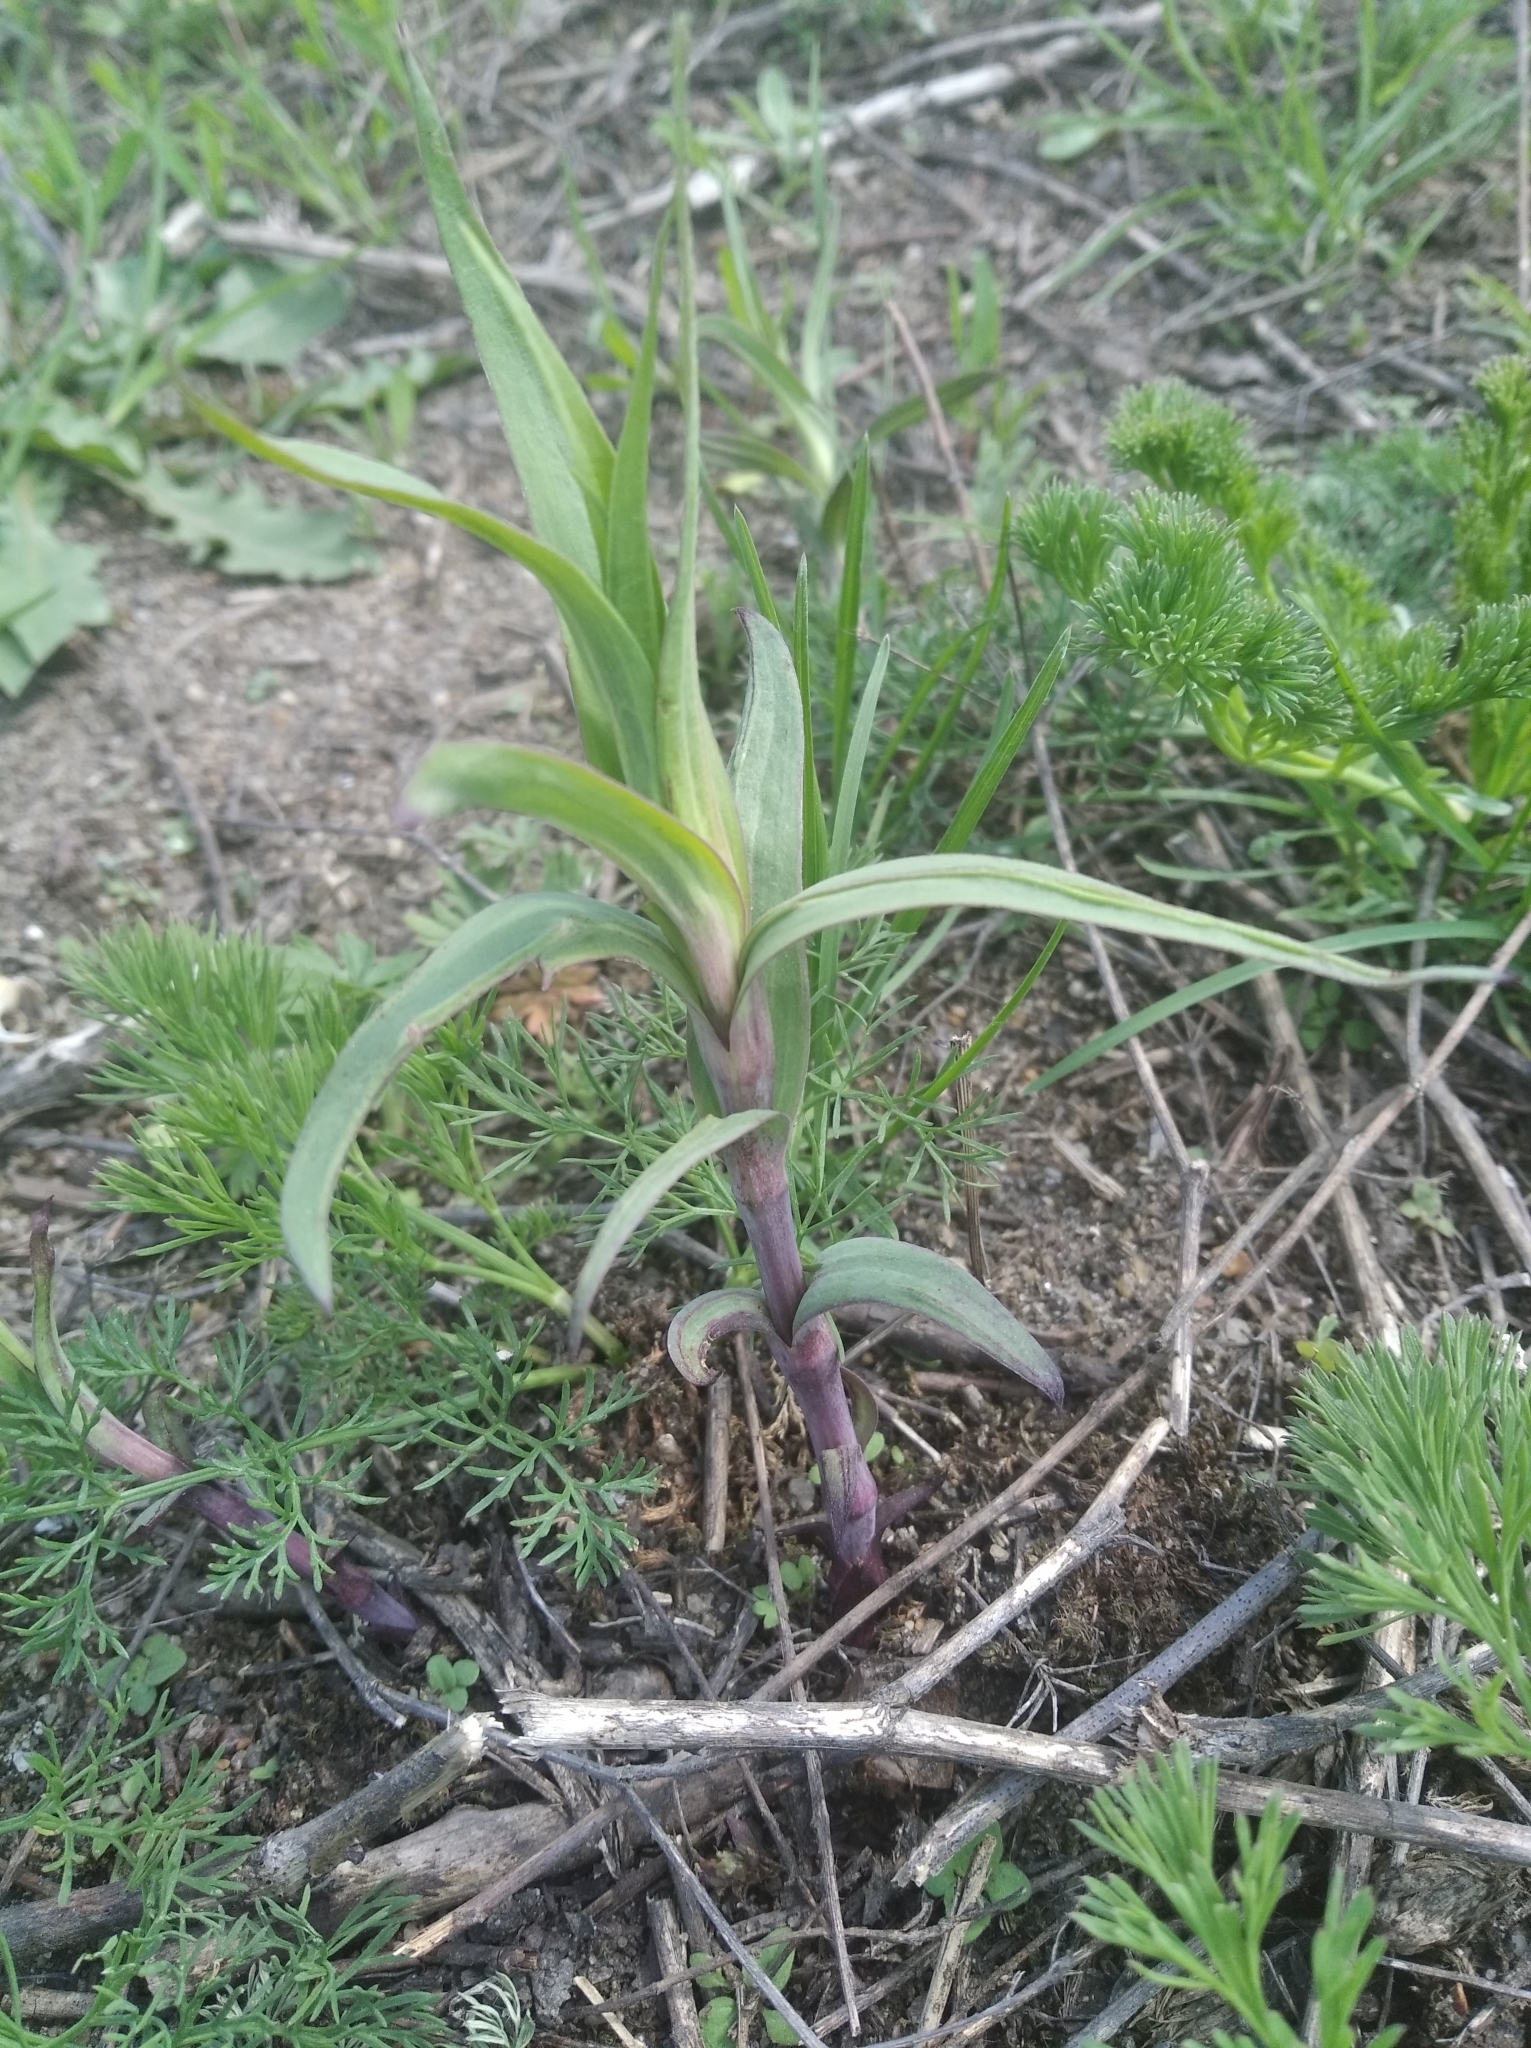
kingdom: Plantae
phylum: Tracheophyta
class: Magnoliopsida
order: Caryophyllales
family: Caryophyllaceae
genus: Gypsophila
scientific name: Gypsophila paniculata
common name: Baby's-breath
